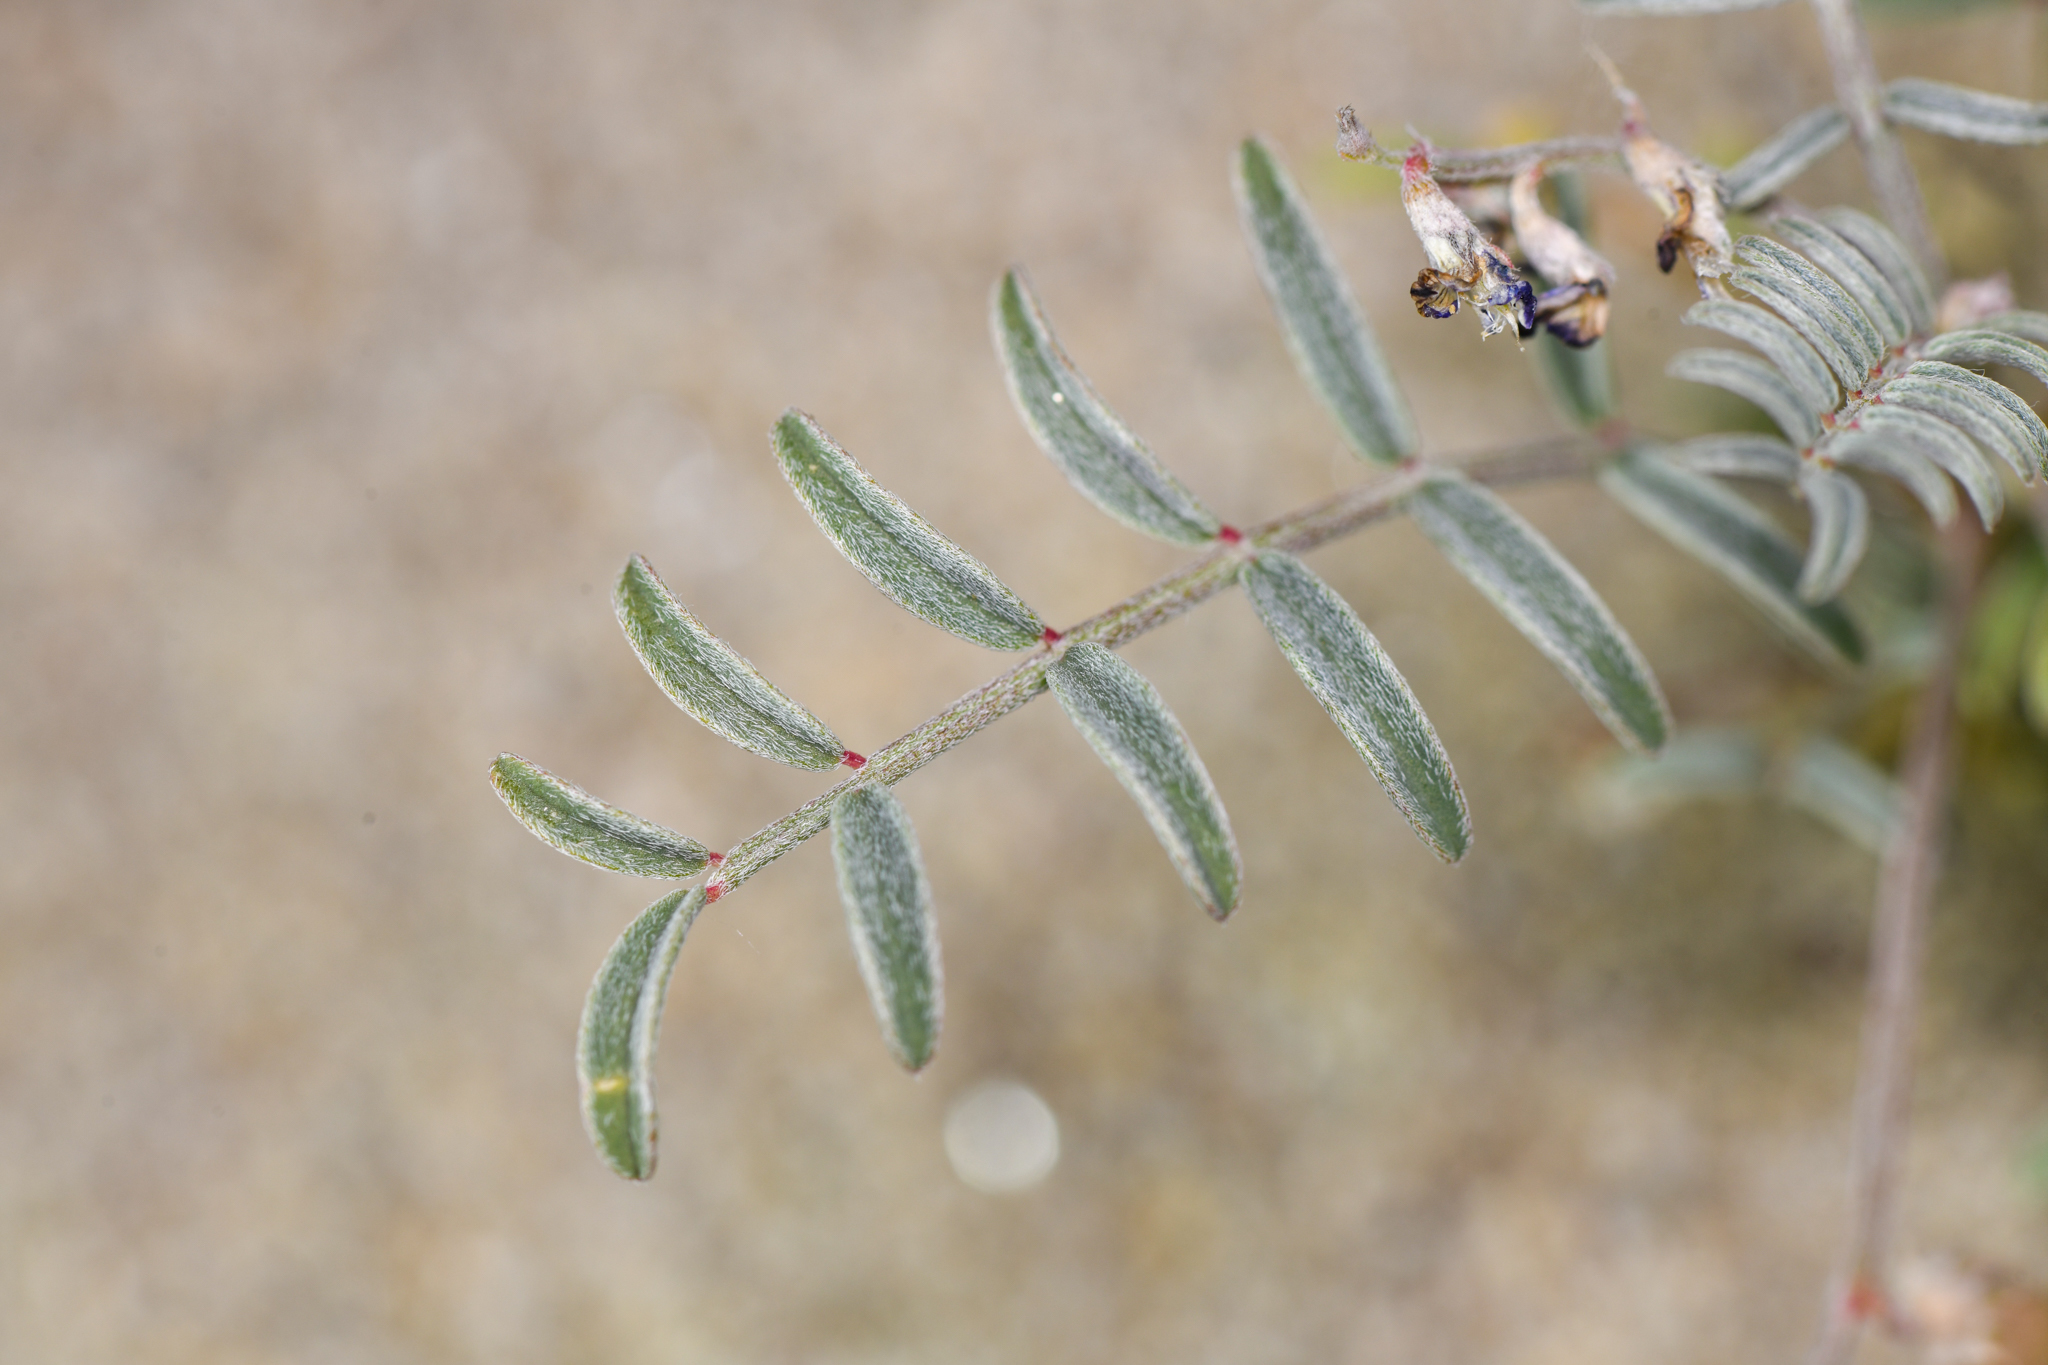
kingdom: Plantae
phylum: Tracheophyta
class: Magnoliopsida
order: Fabales
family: Fabaceae
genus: Astragalus
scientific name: Astragalus insularis
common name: Cedros milk-vetch
